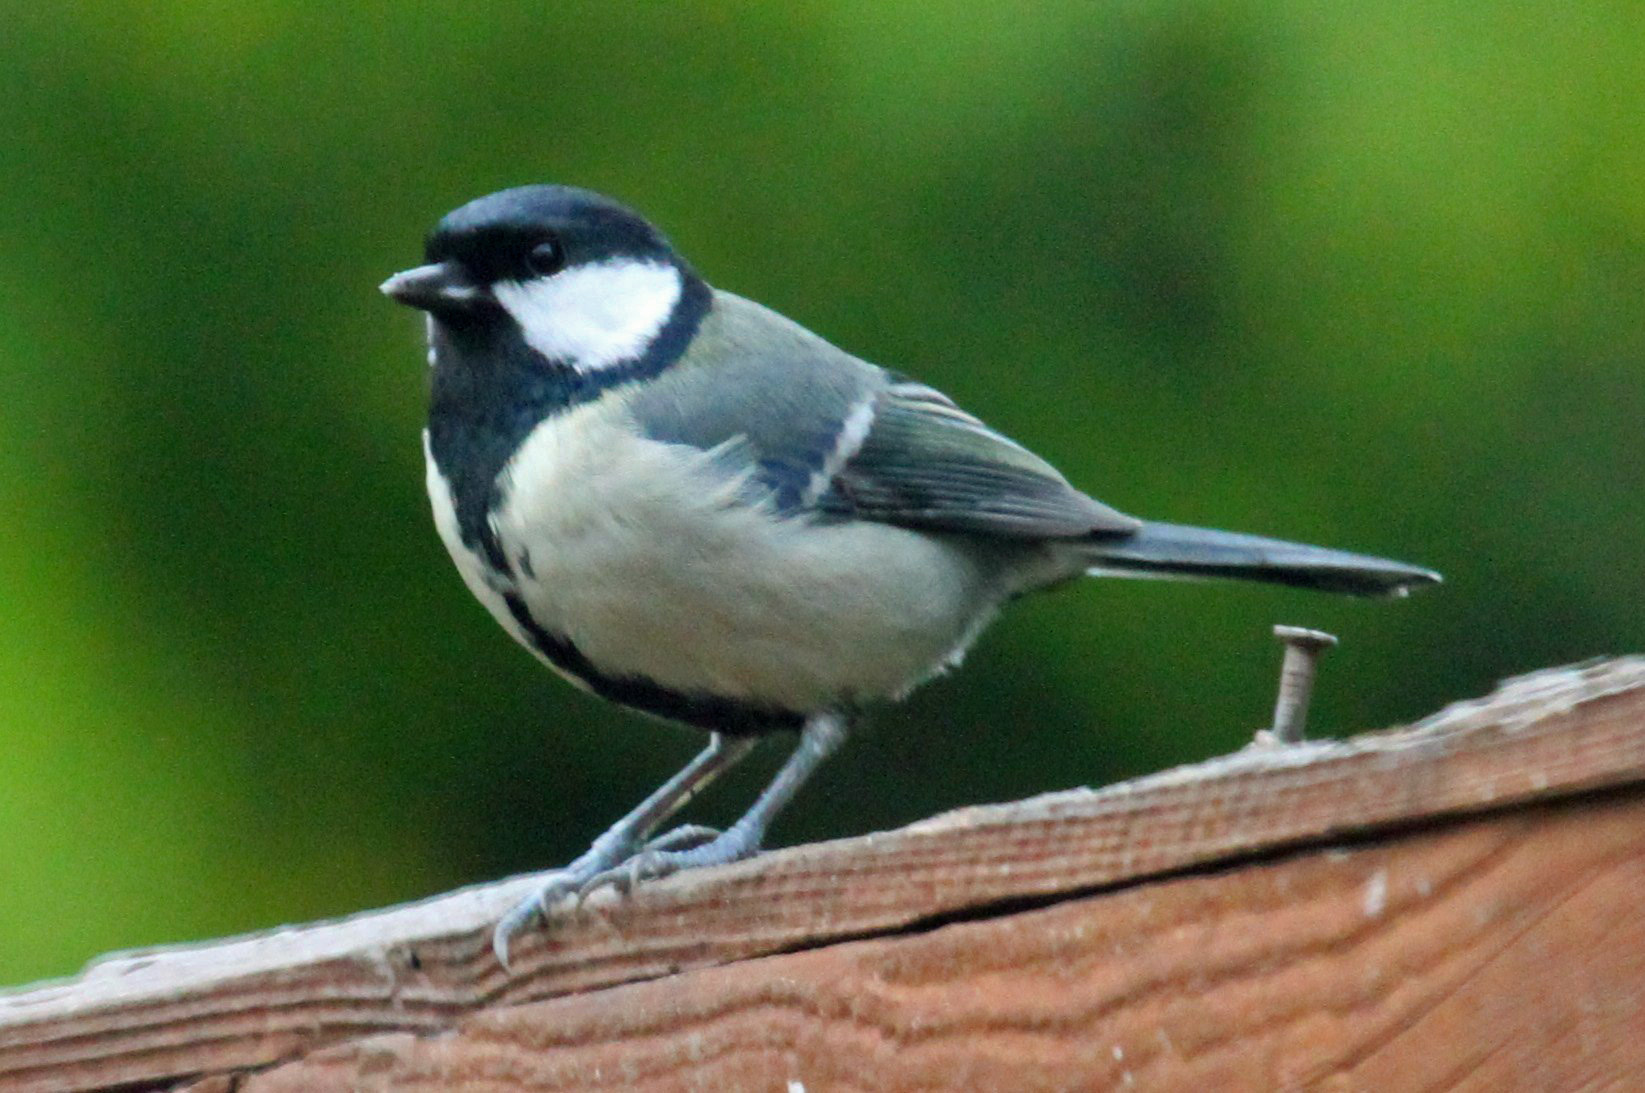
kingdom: Animalia
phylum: Chordata
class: Aves
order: Passeriformes
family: Paridae
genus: Parus
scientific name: Parus major
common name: Great tit
